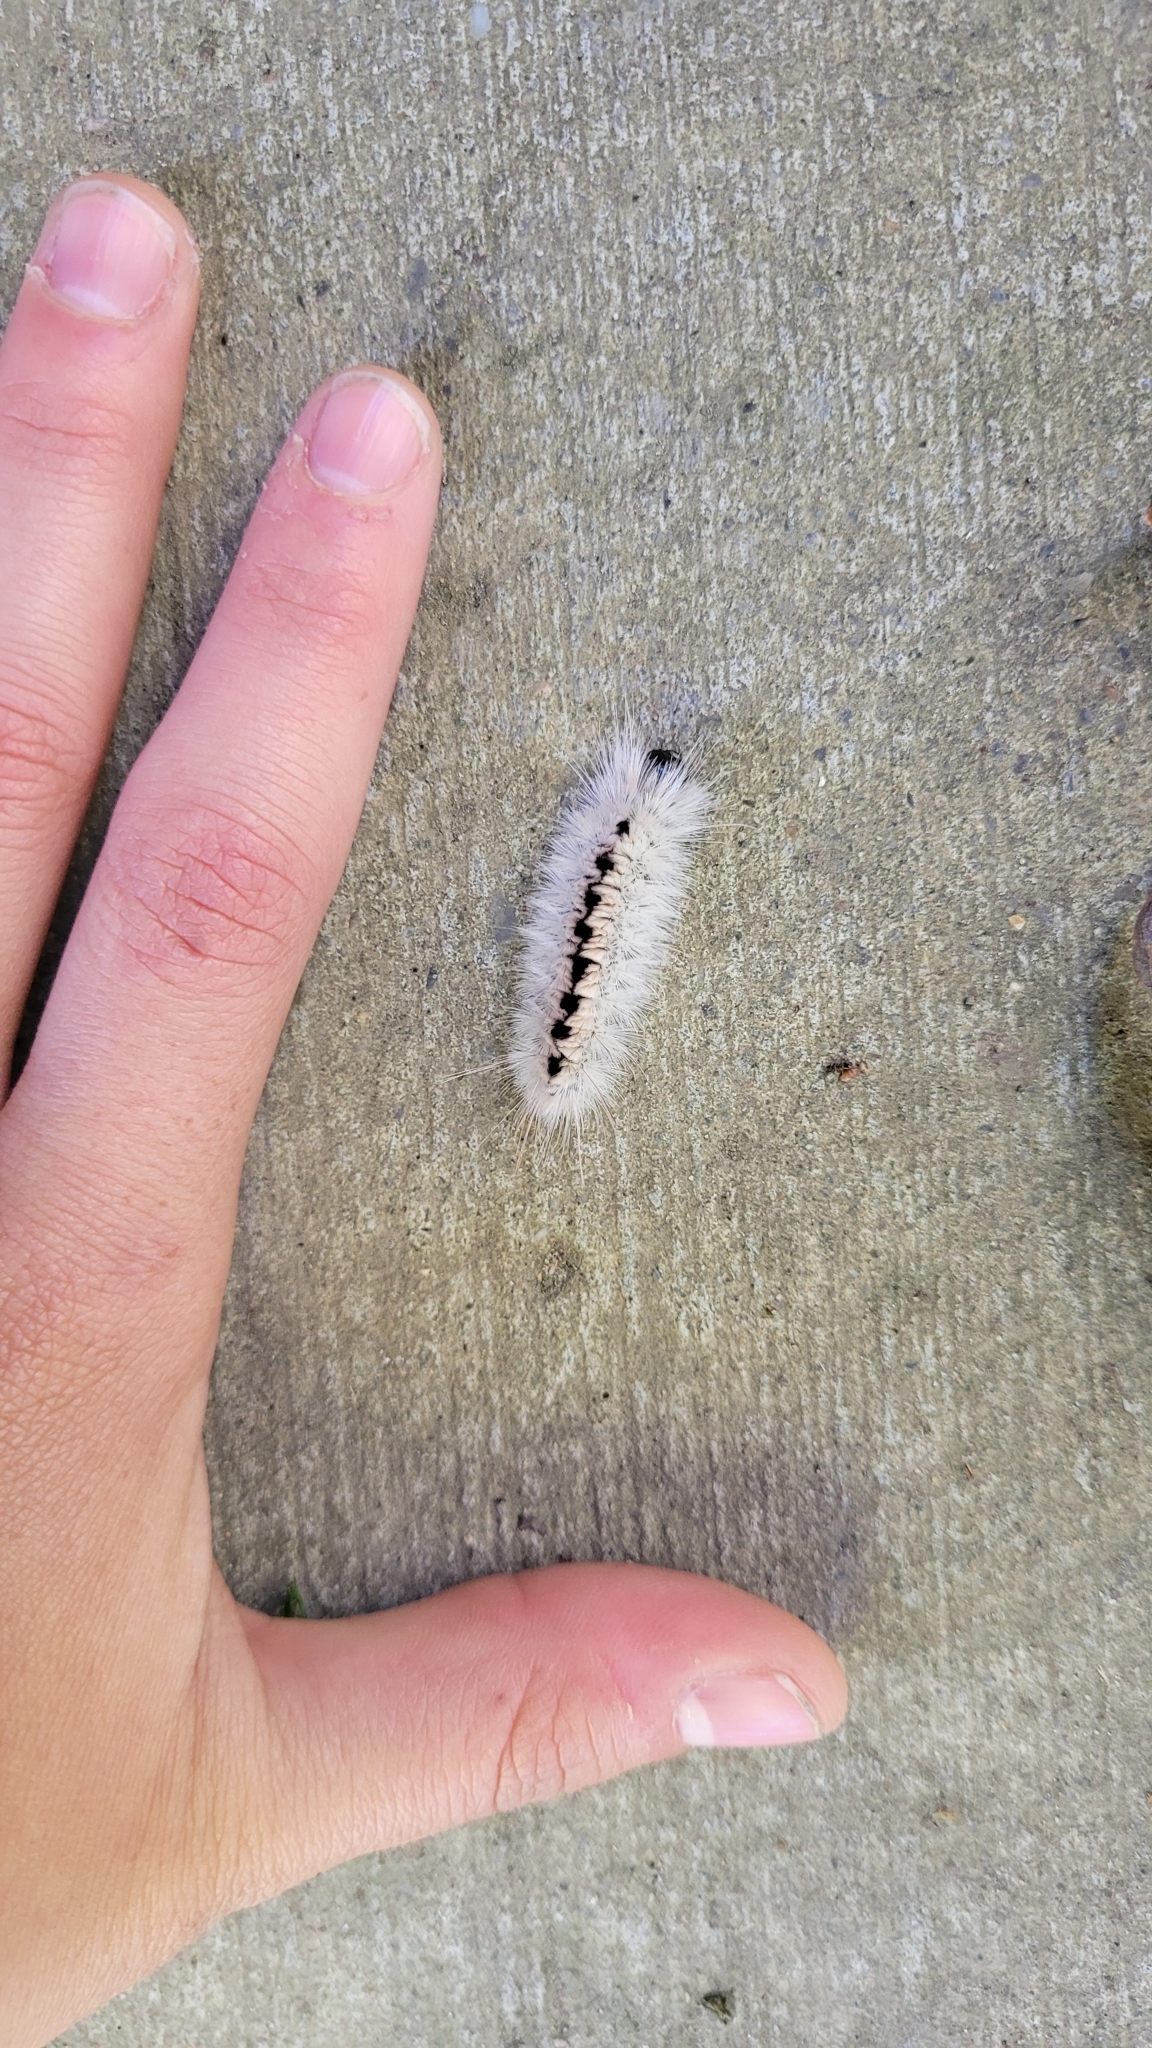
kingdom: Animalia
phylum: Arthropoda
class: Insecta
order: Lepidoptera
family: Erebidae
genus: Lophocampa
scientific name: Lophocampa caryae
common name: Hickory tussock moth
